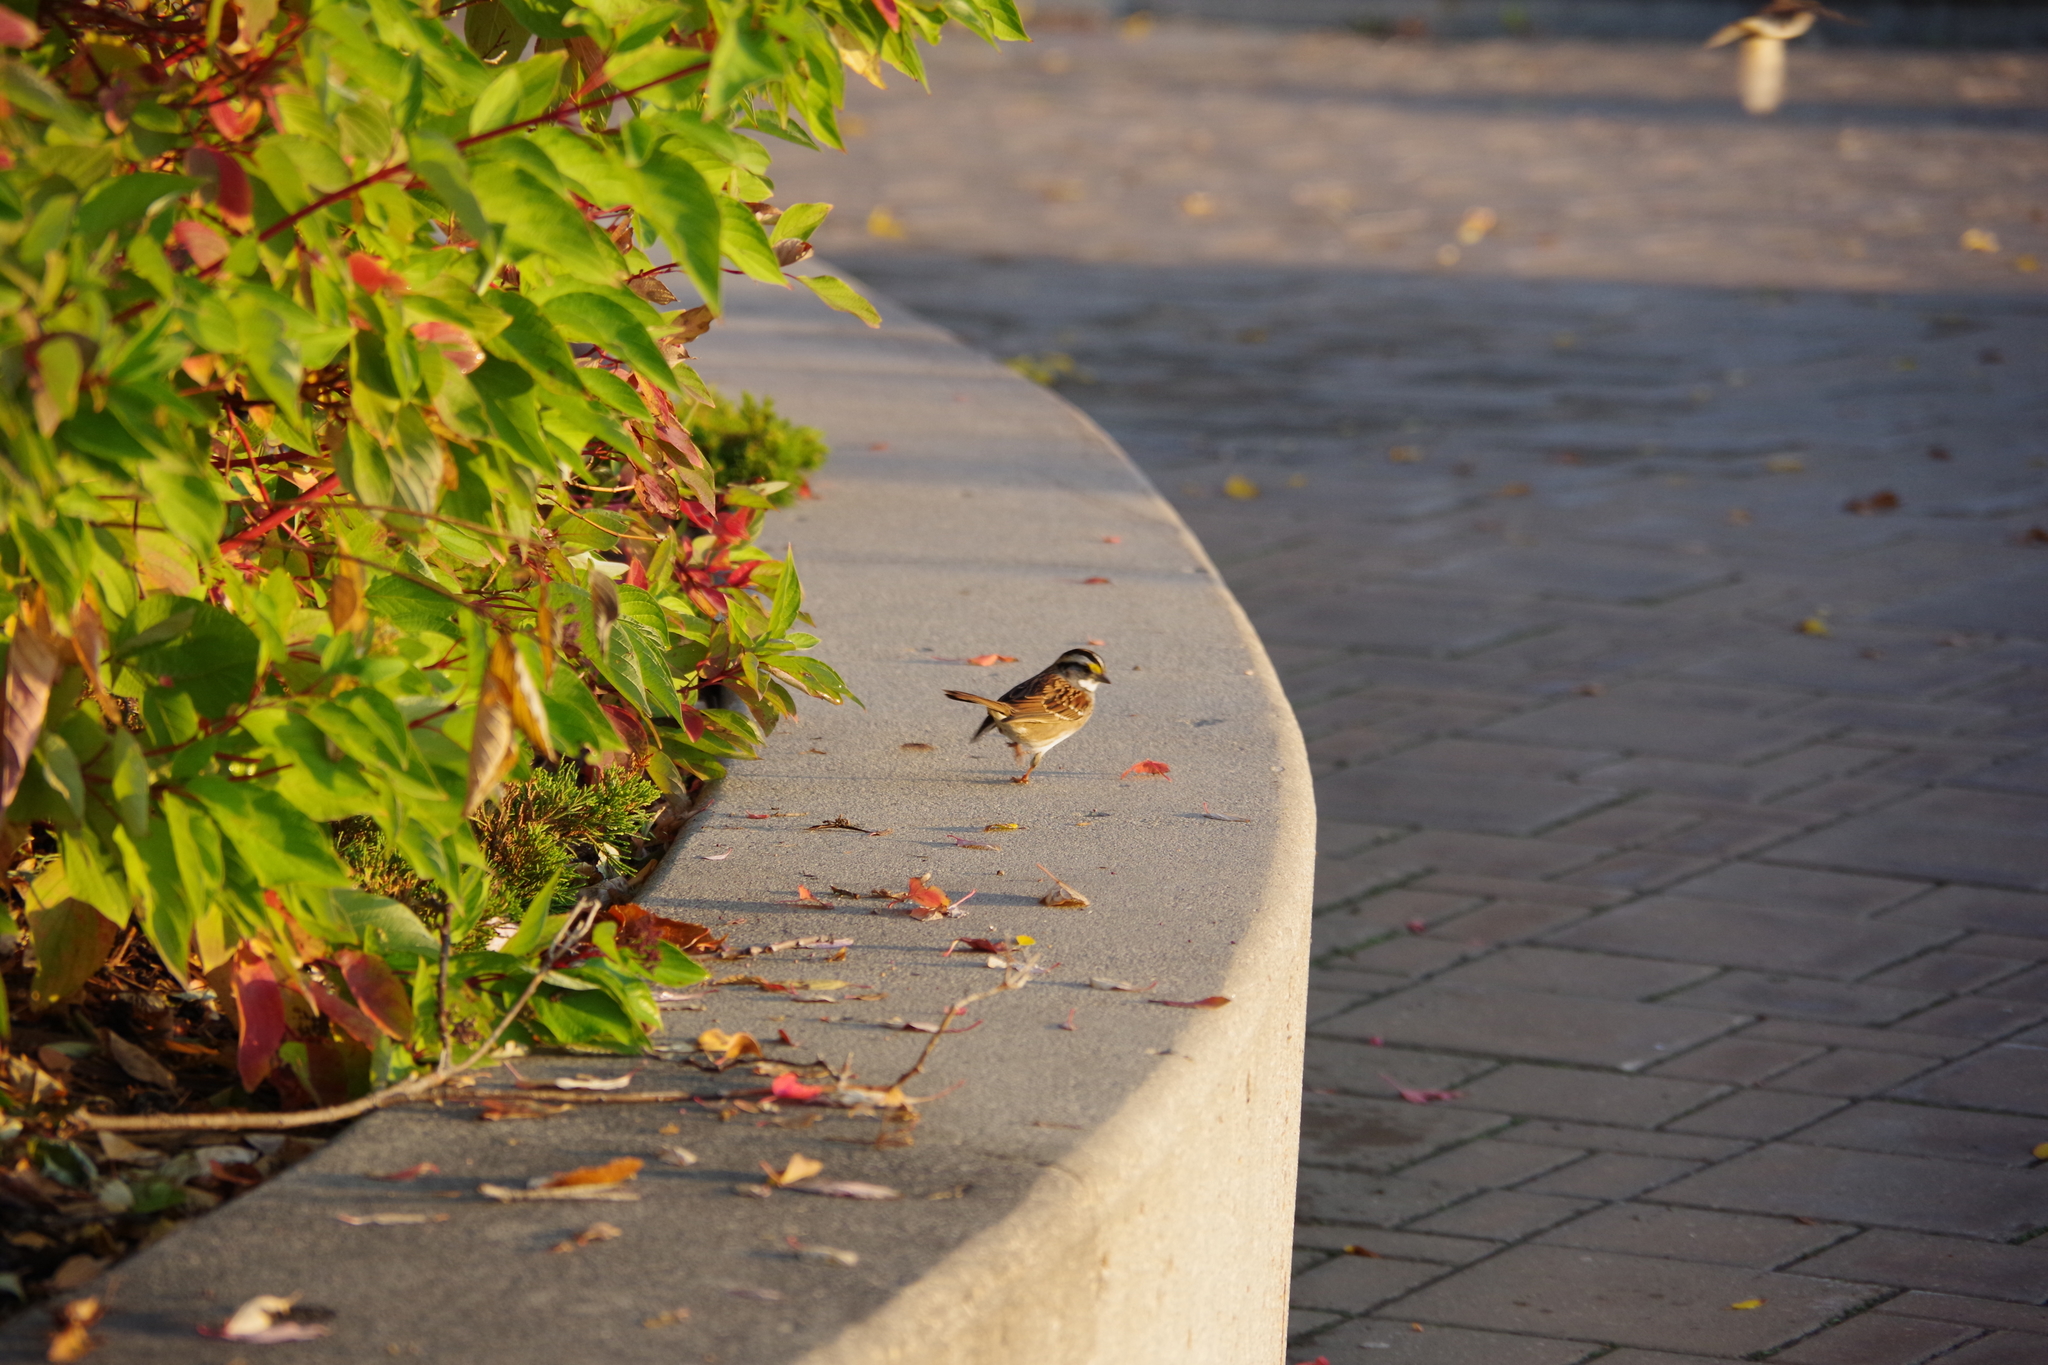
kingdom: Animalia
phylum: Chordata
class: Aves
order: Passeriformes
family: Passerellidae
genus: Zonotrichia
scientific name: Zonotrichia albicollis
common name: White-throated sparrow
